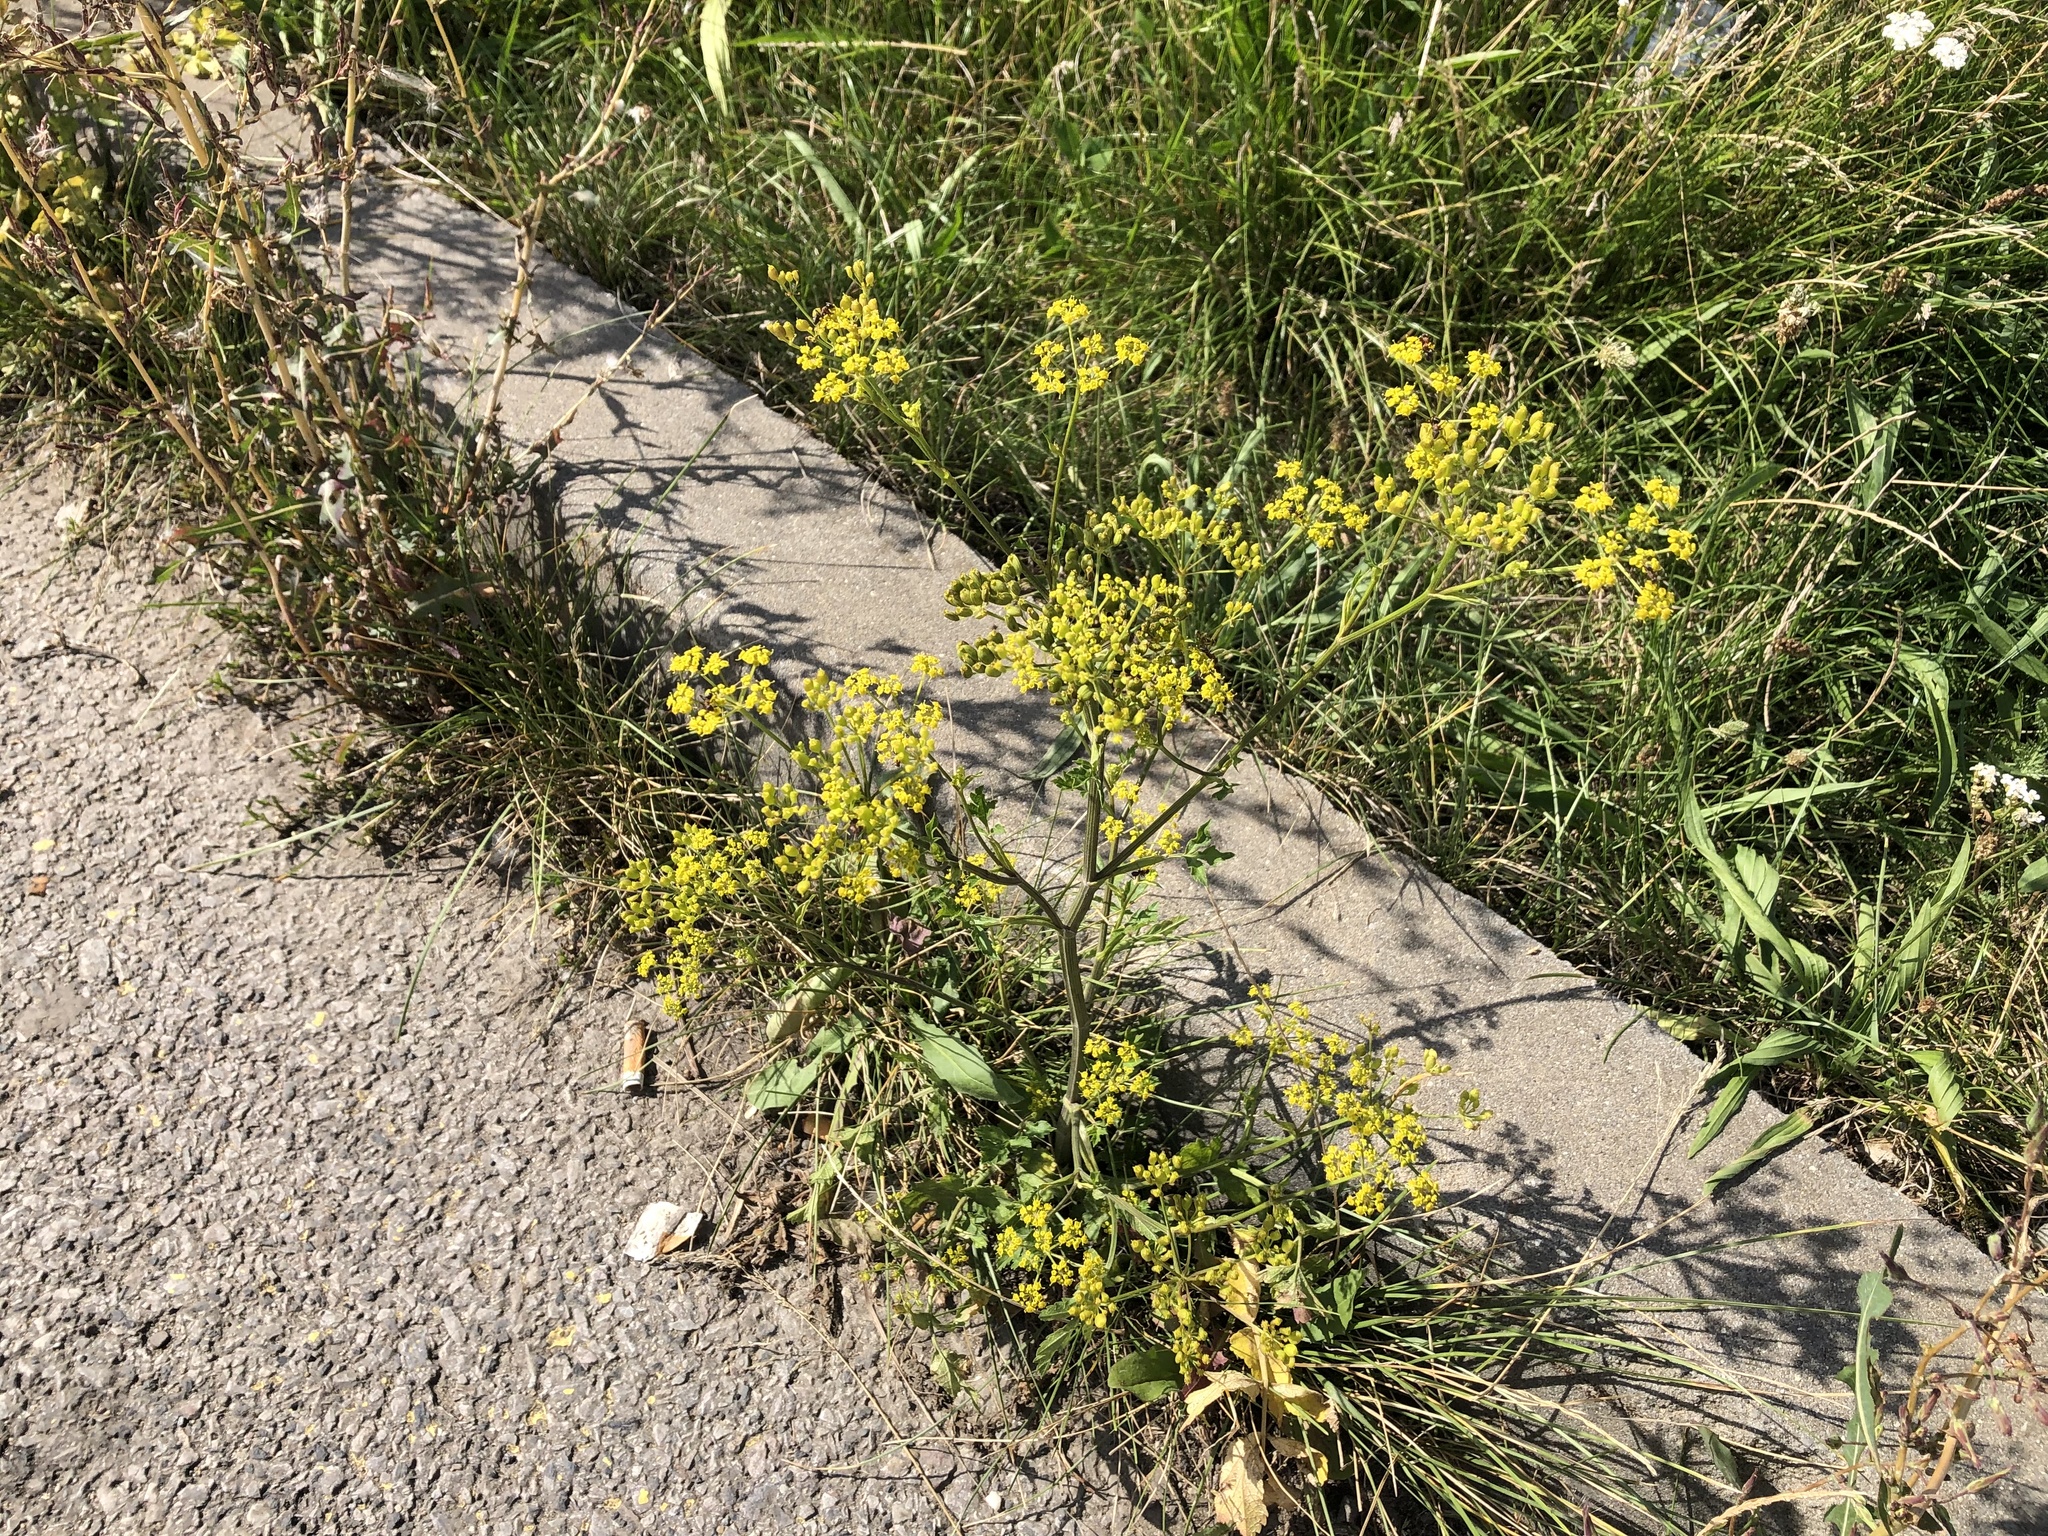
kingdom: Plantae
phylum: Tracheophyta
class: Magnoliopsida
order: Apiales
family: Apiaceae
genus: Pastinaca
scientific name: Pastinaca sativa
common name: Wild parsnip
